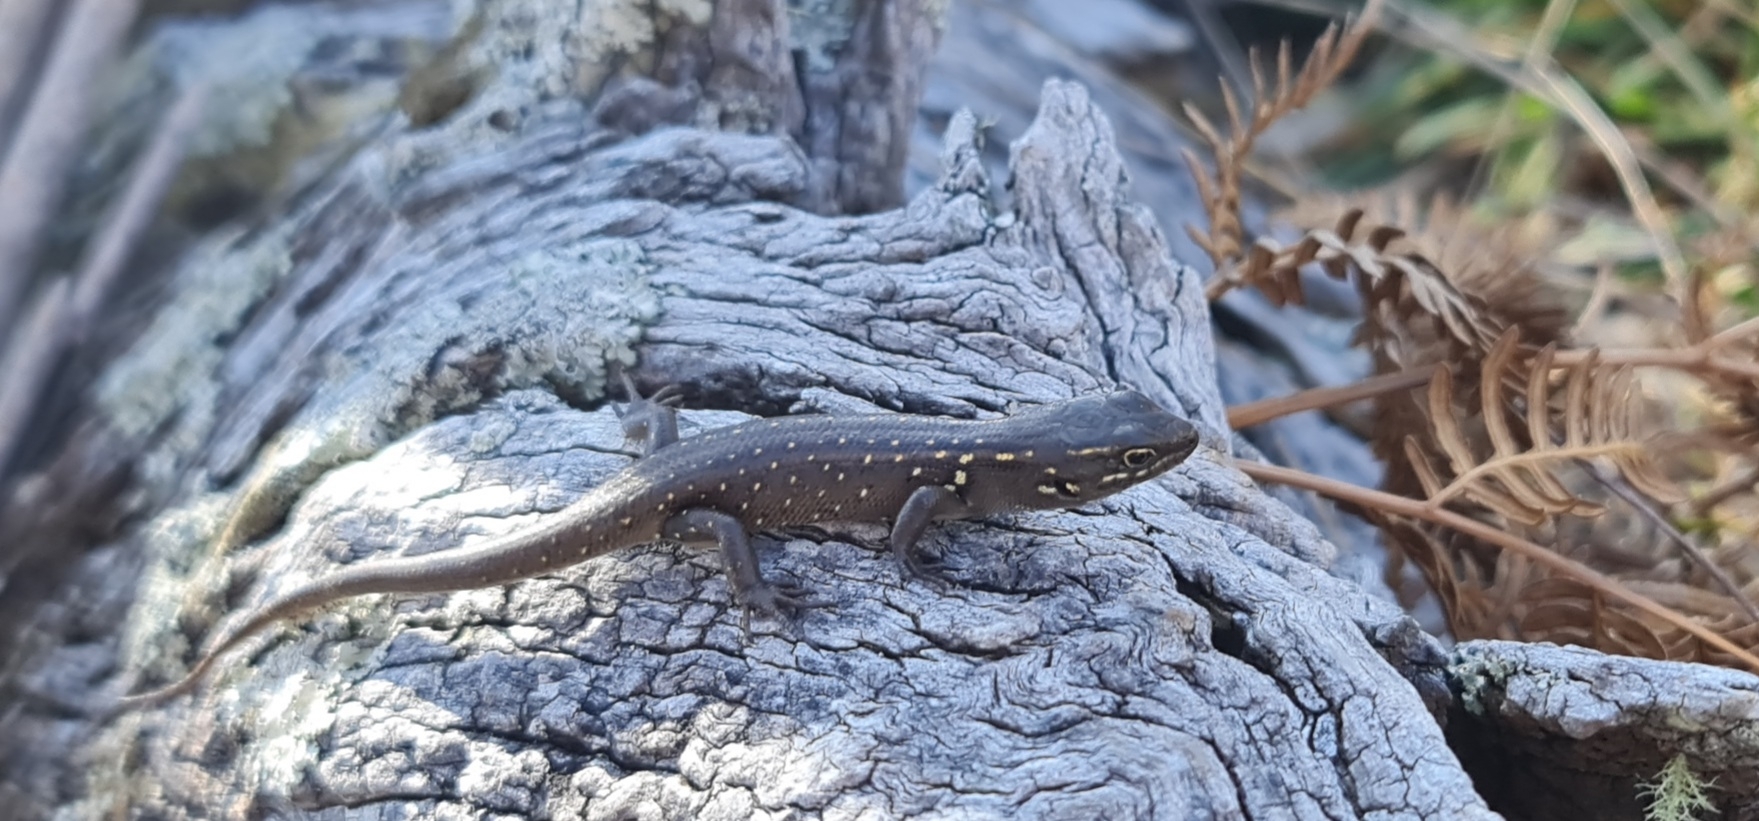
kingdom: Animalia
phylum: Chordata
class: Squamata
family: Scincidae
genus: Liopholis
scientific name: Liopholis whitii
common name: White's rock-skink
